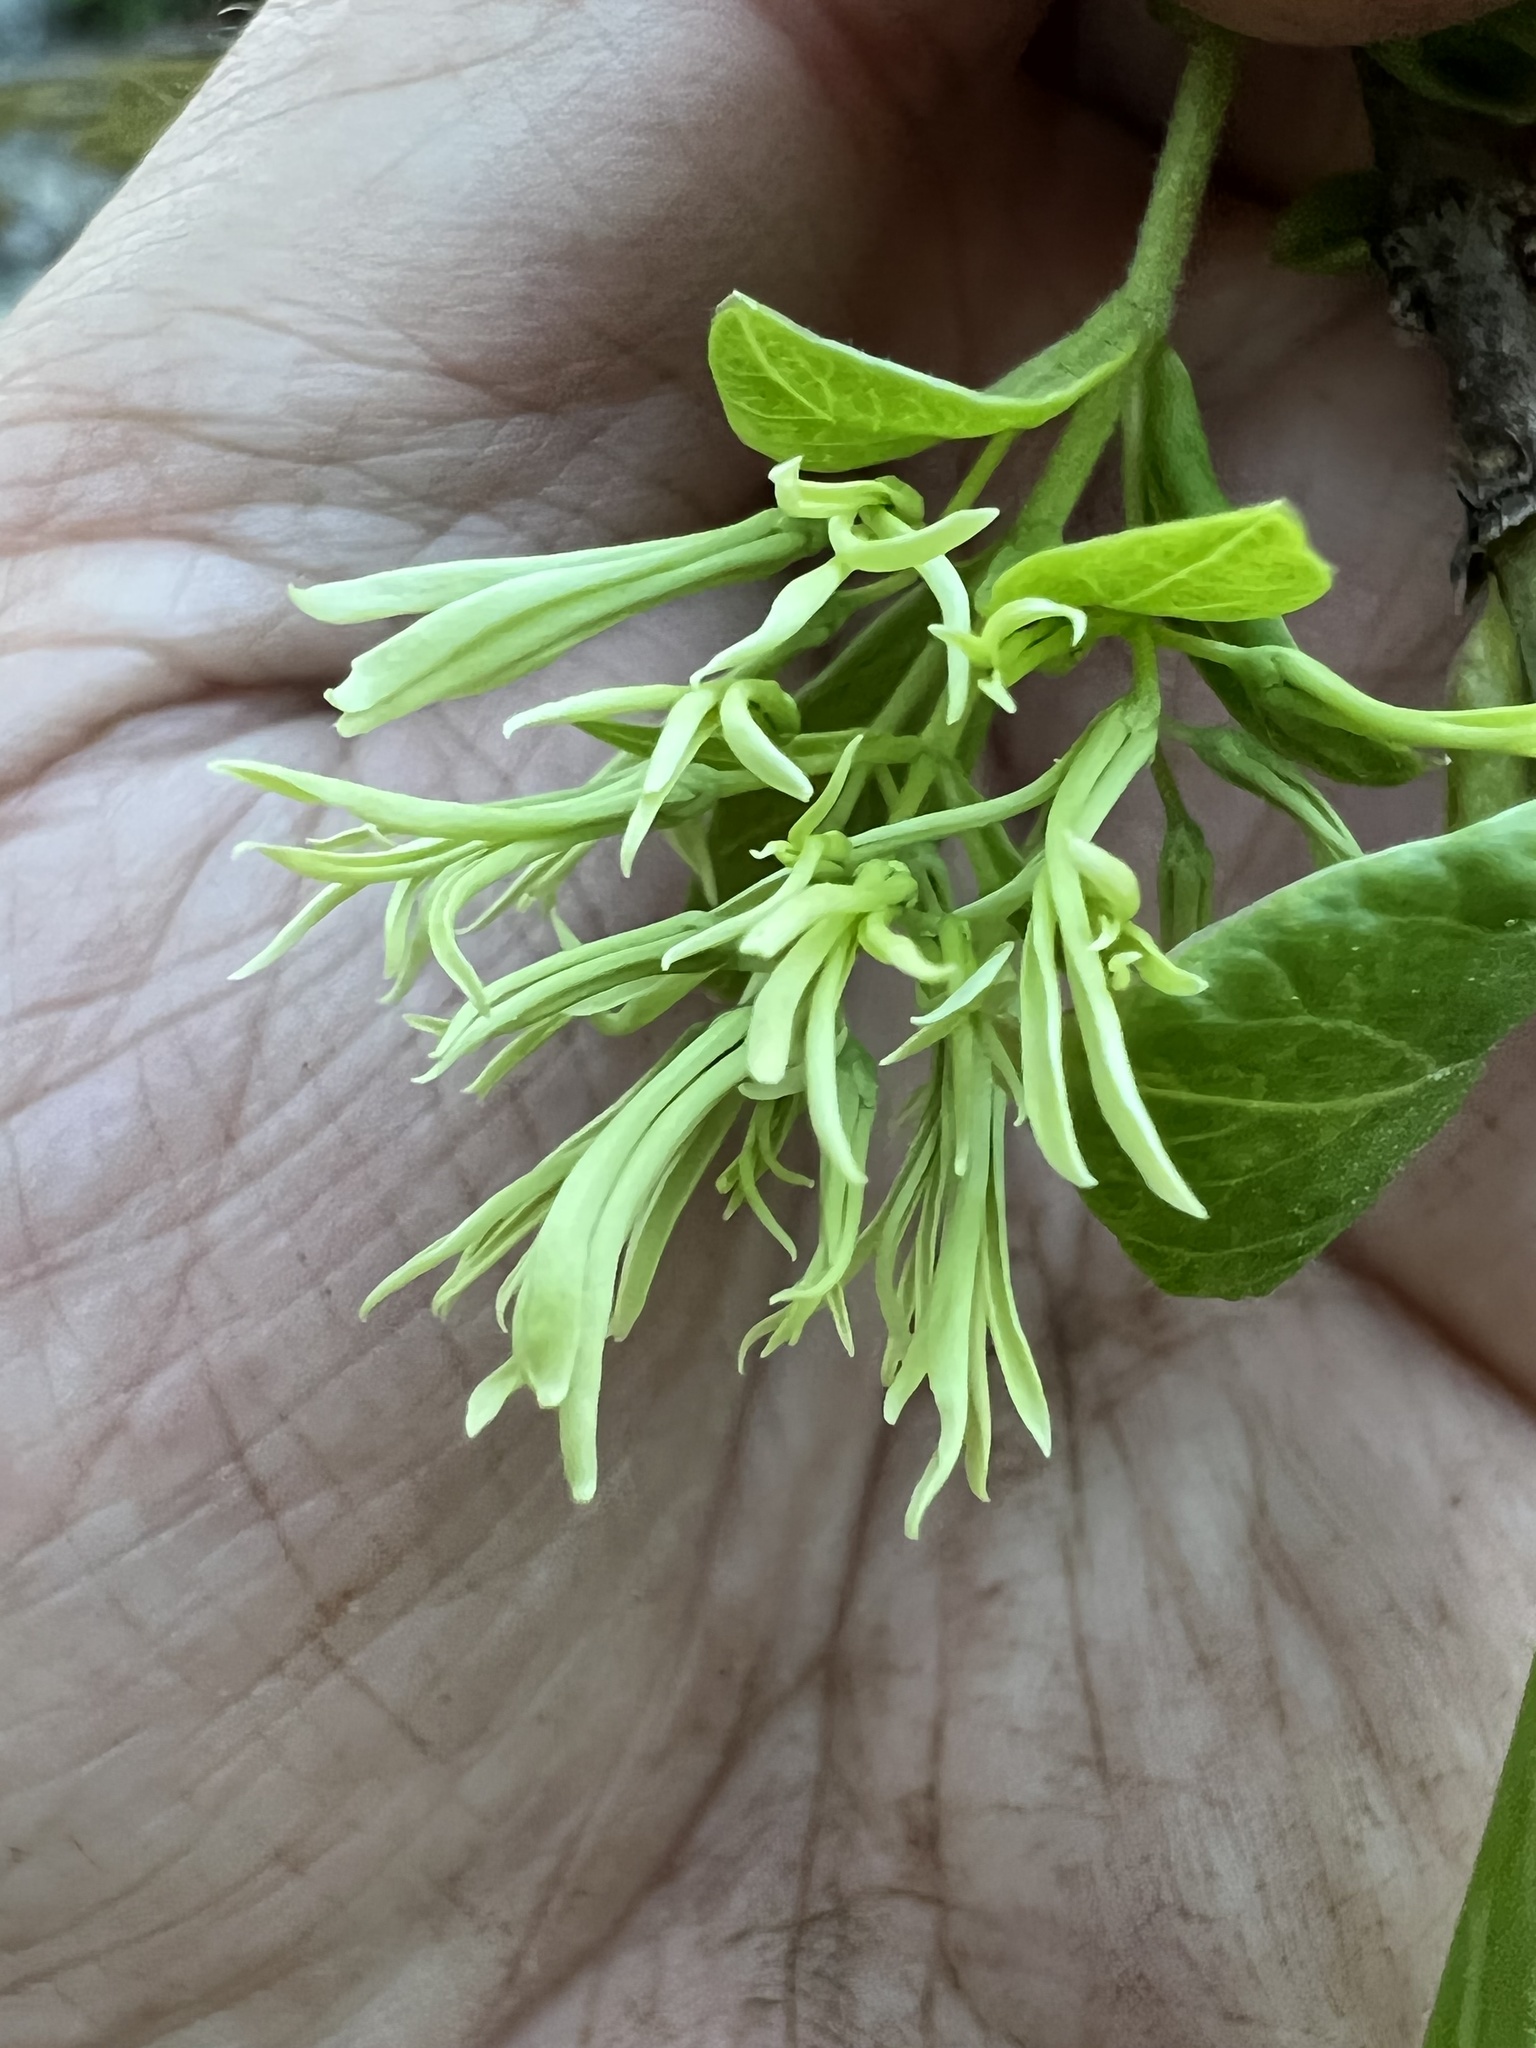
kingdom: Plantae
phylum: Tracheophyta
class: Magnoliopsida
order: Lamiales
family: Oleaceae
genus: Chionanthus
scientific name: Chionanthus virginicus
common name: American fringetree
